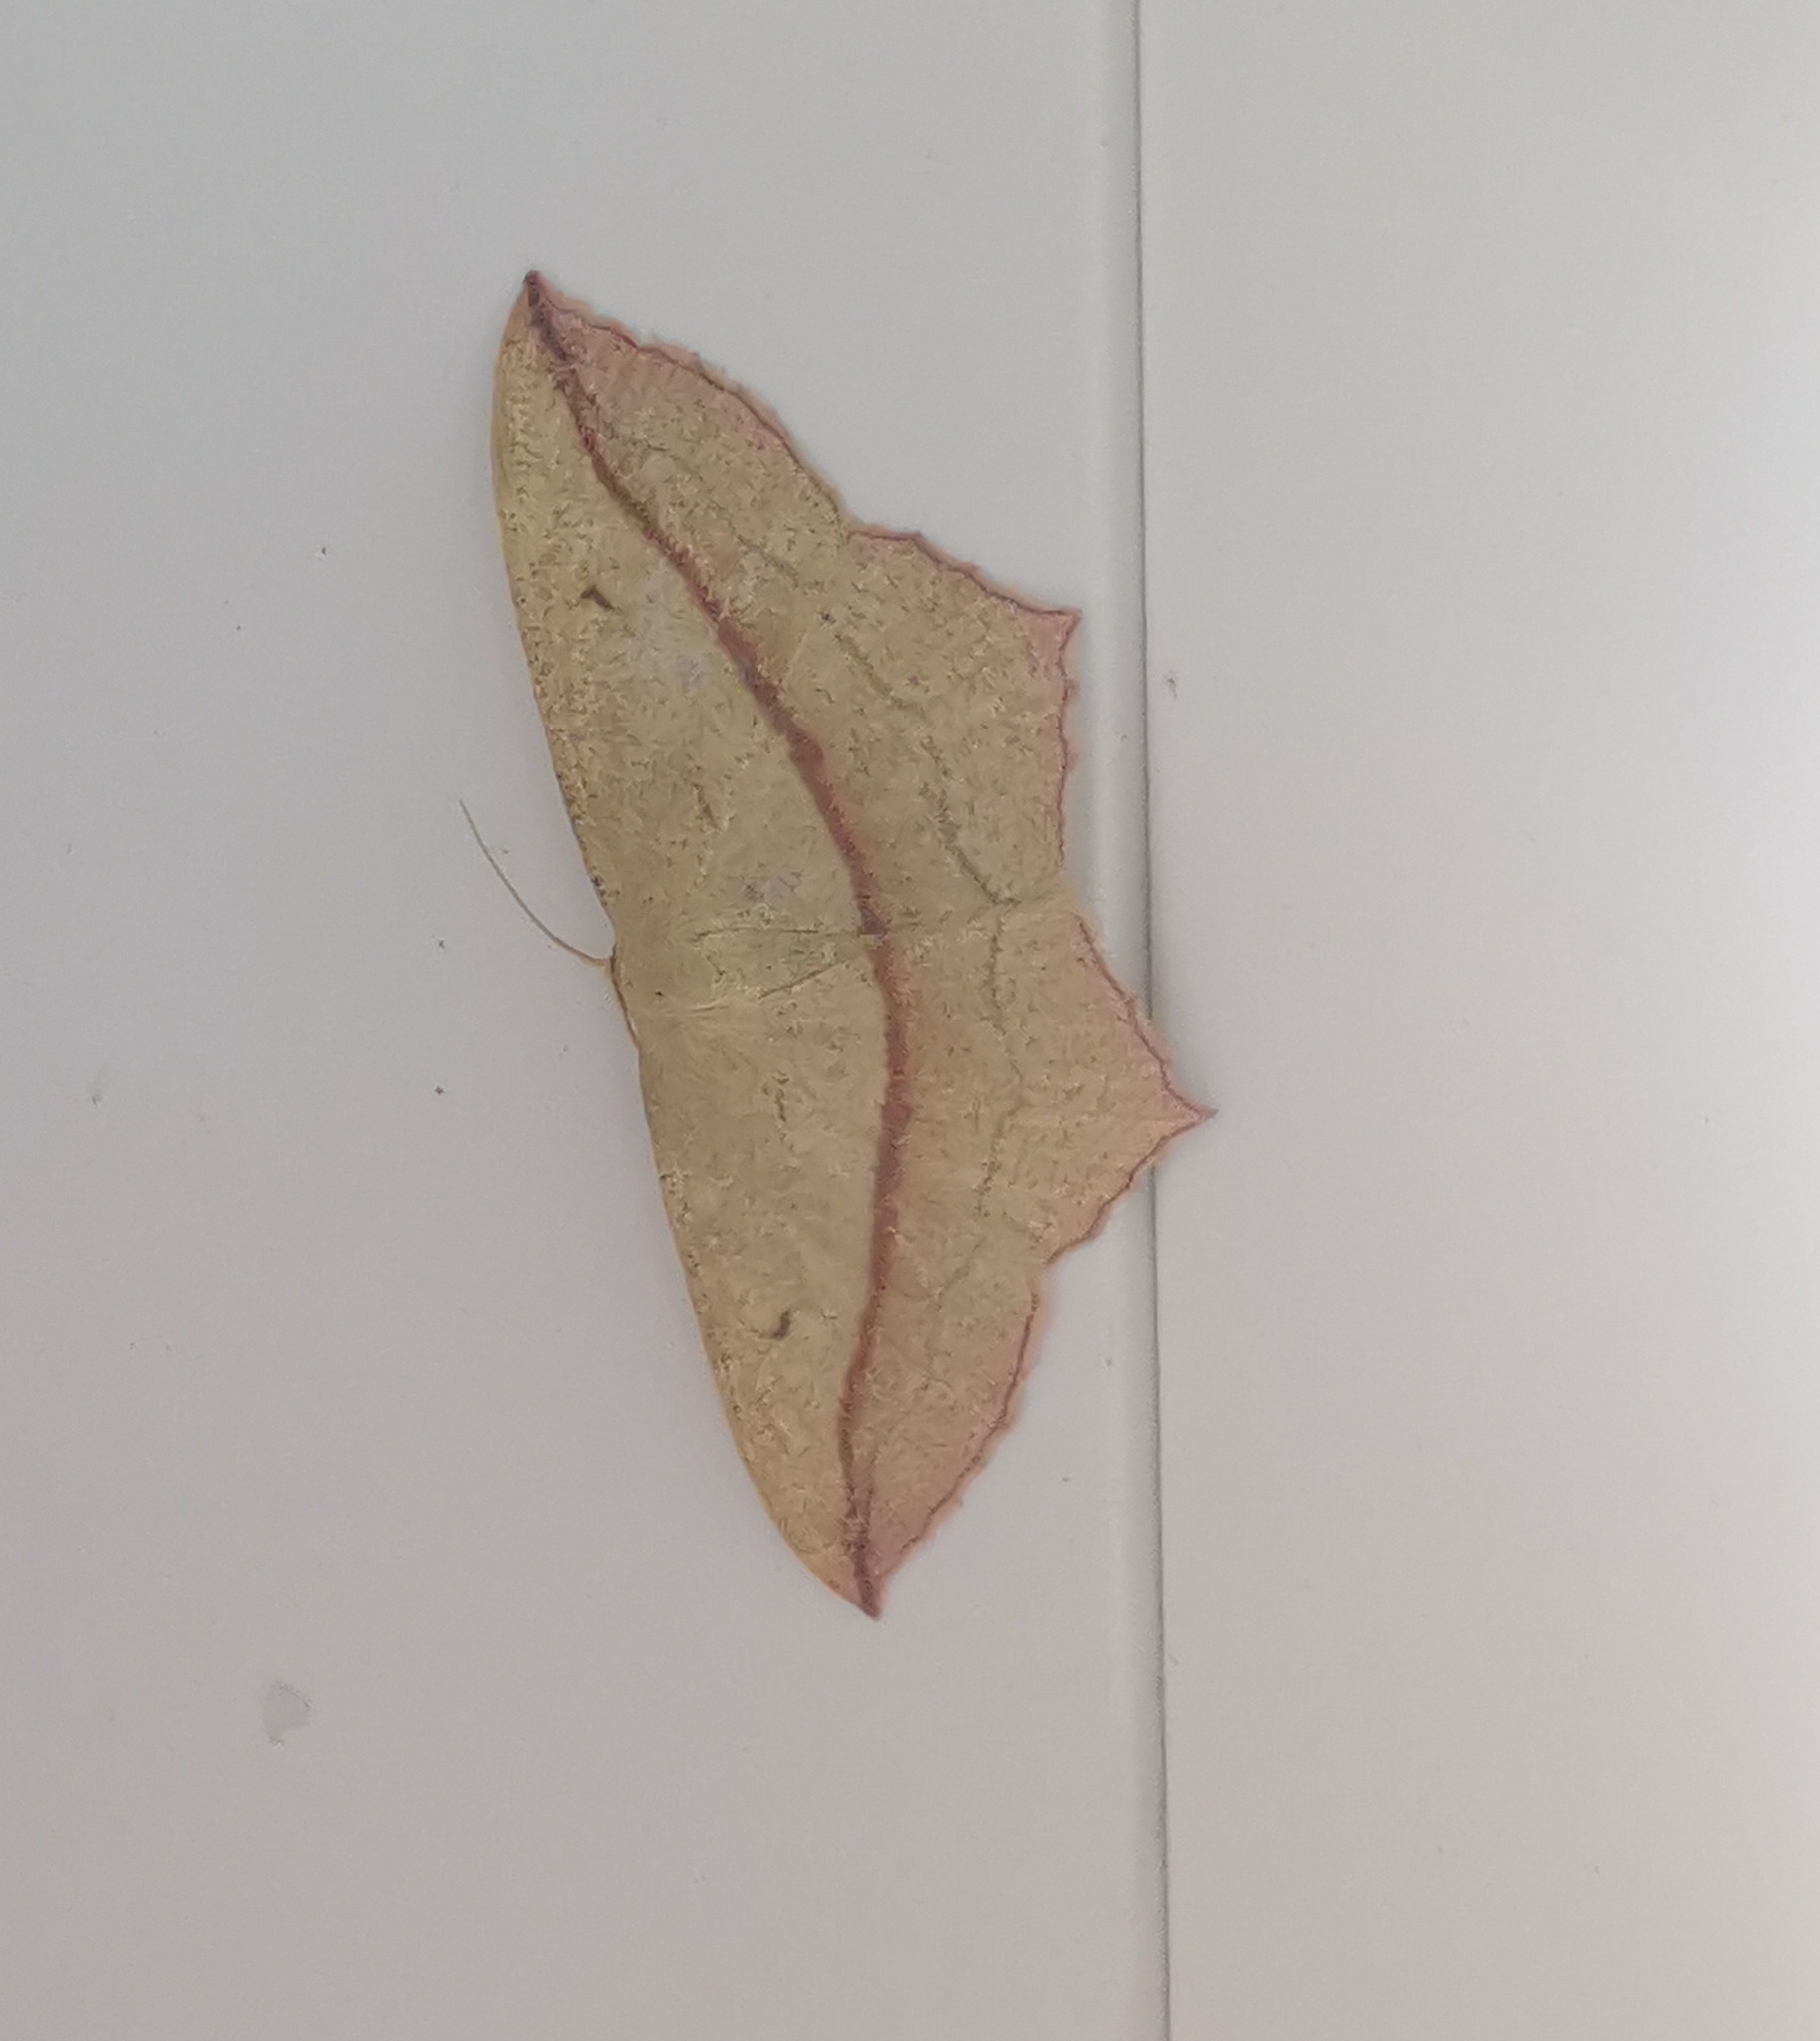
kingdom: Animalia
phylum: Arthropoda
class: Insecta
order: Lepidoptera
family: Geometridae
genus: Timandra
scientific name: Timandra comae
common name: Blood-vein
